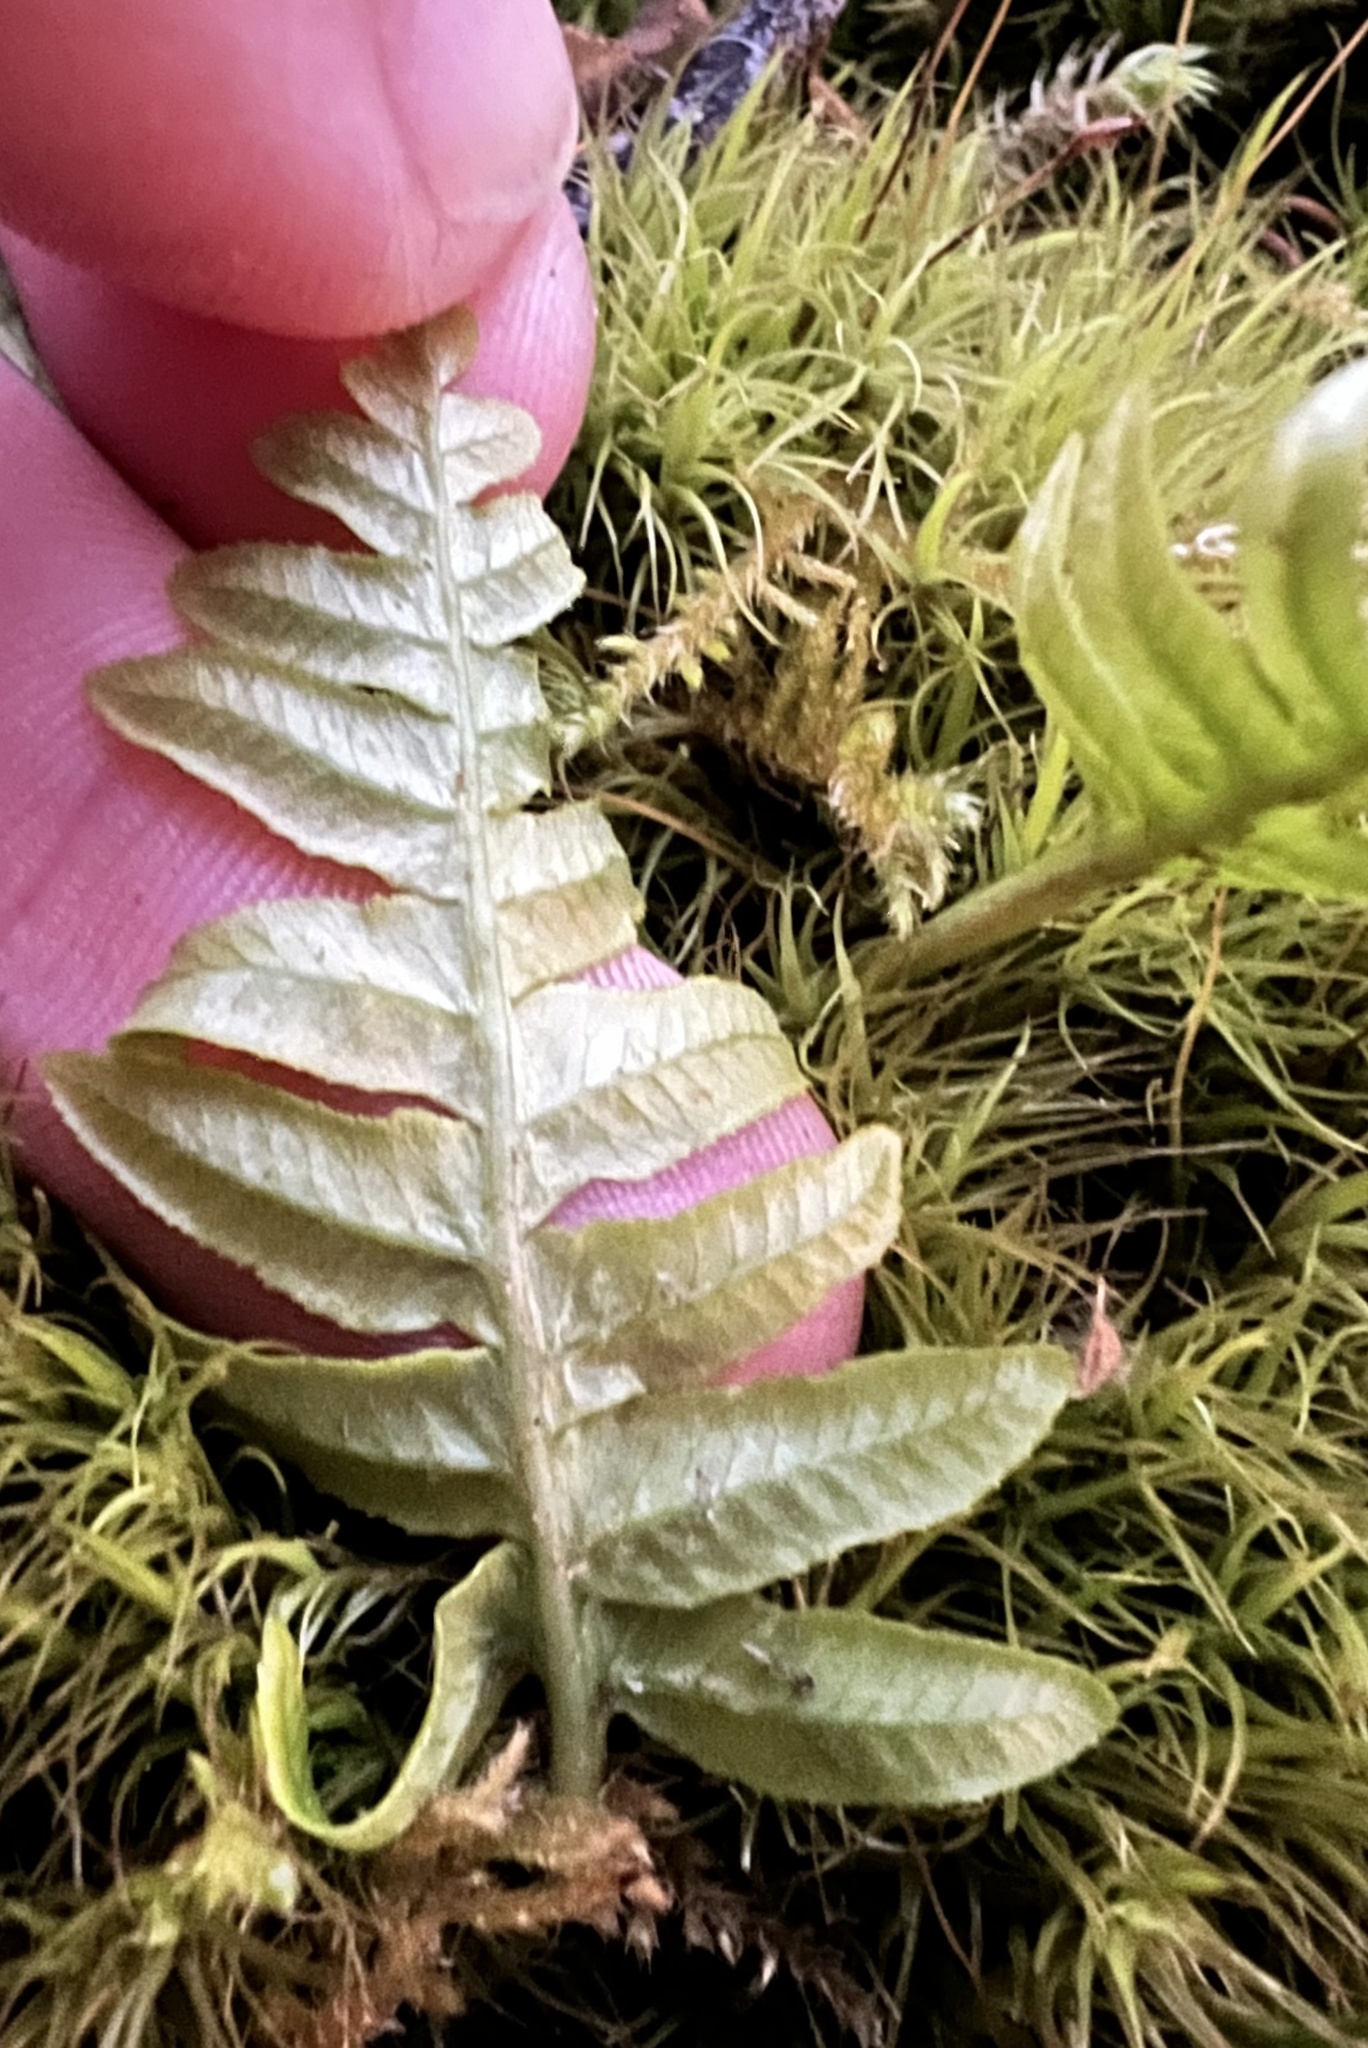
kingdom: Plantae
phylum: Tracheophyta
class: Polypodiopsida
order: Polypodiales
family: Polypodiaceae
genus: Polypodium
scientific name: Polypodium glycyrrhiza
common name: Licorice fern
